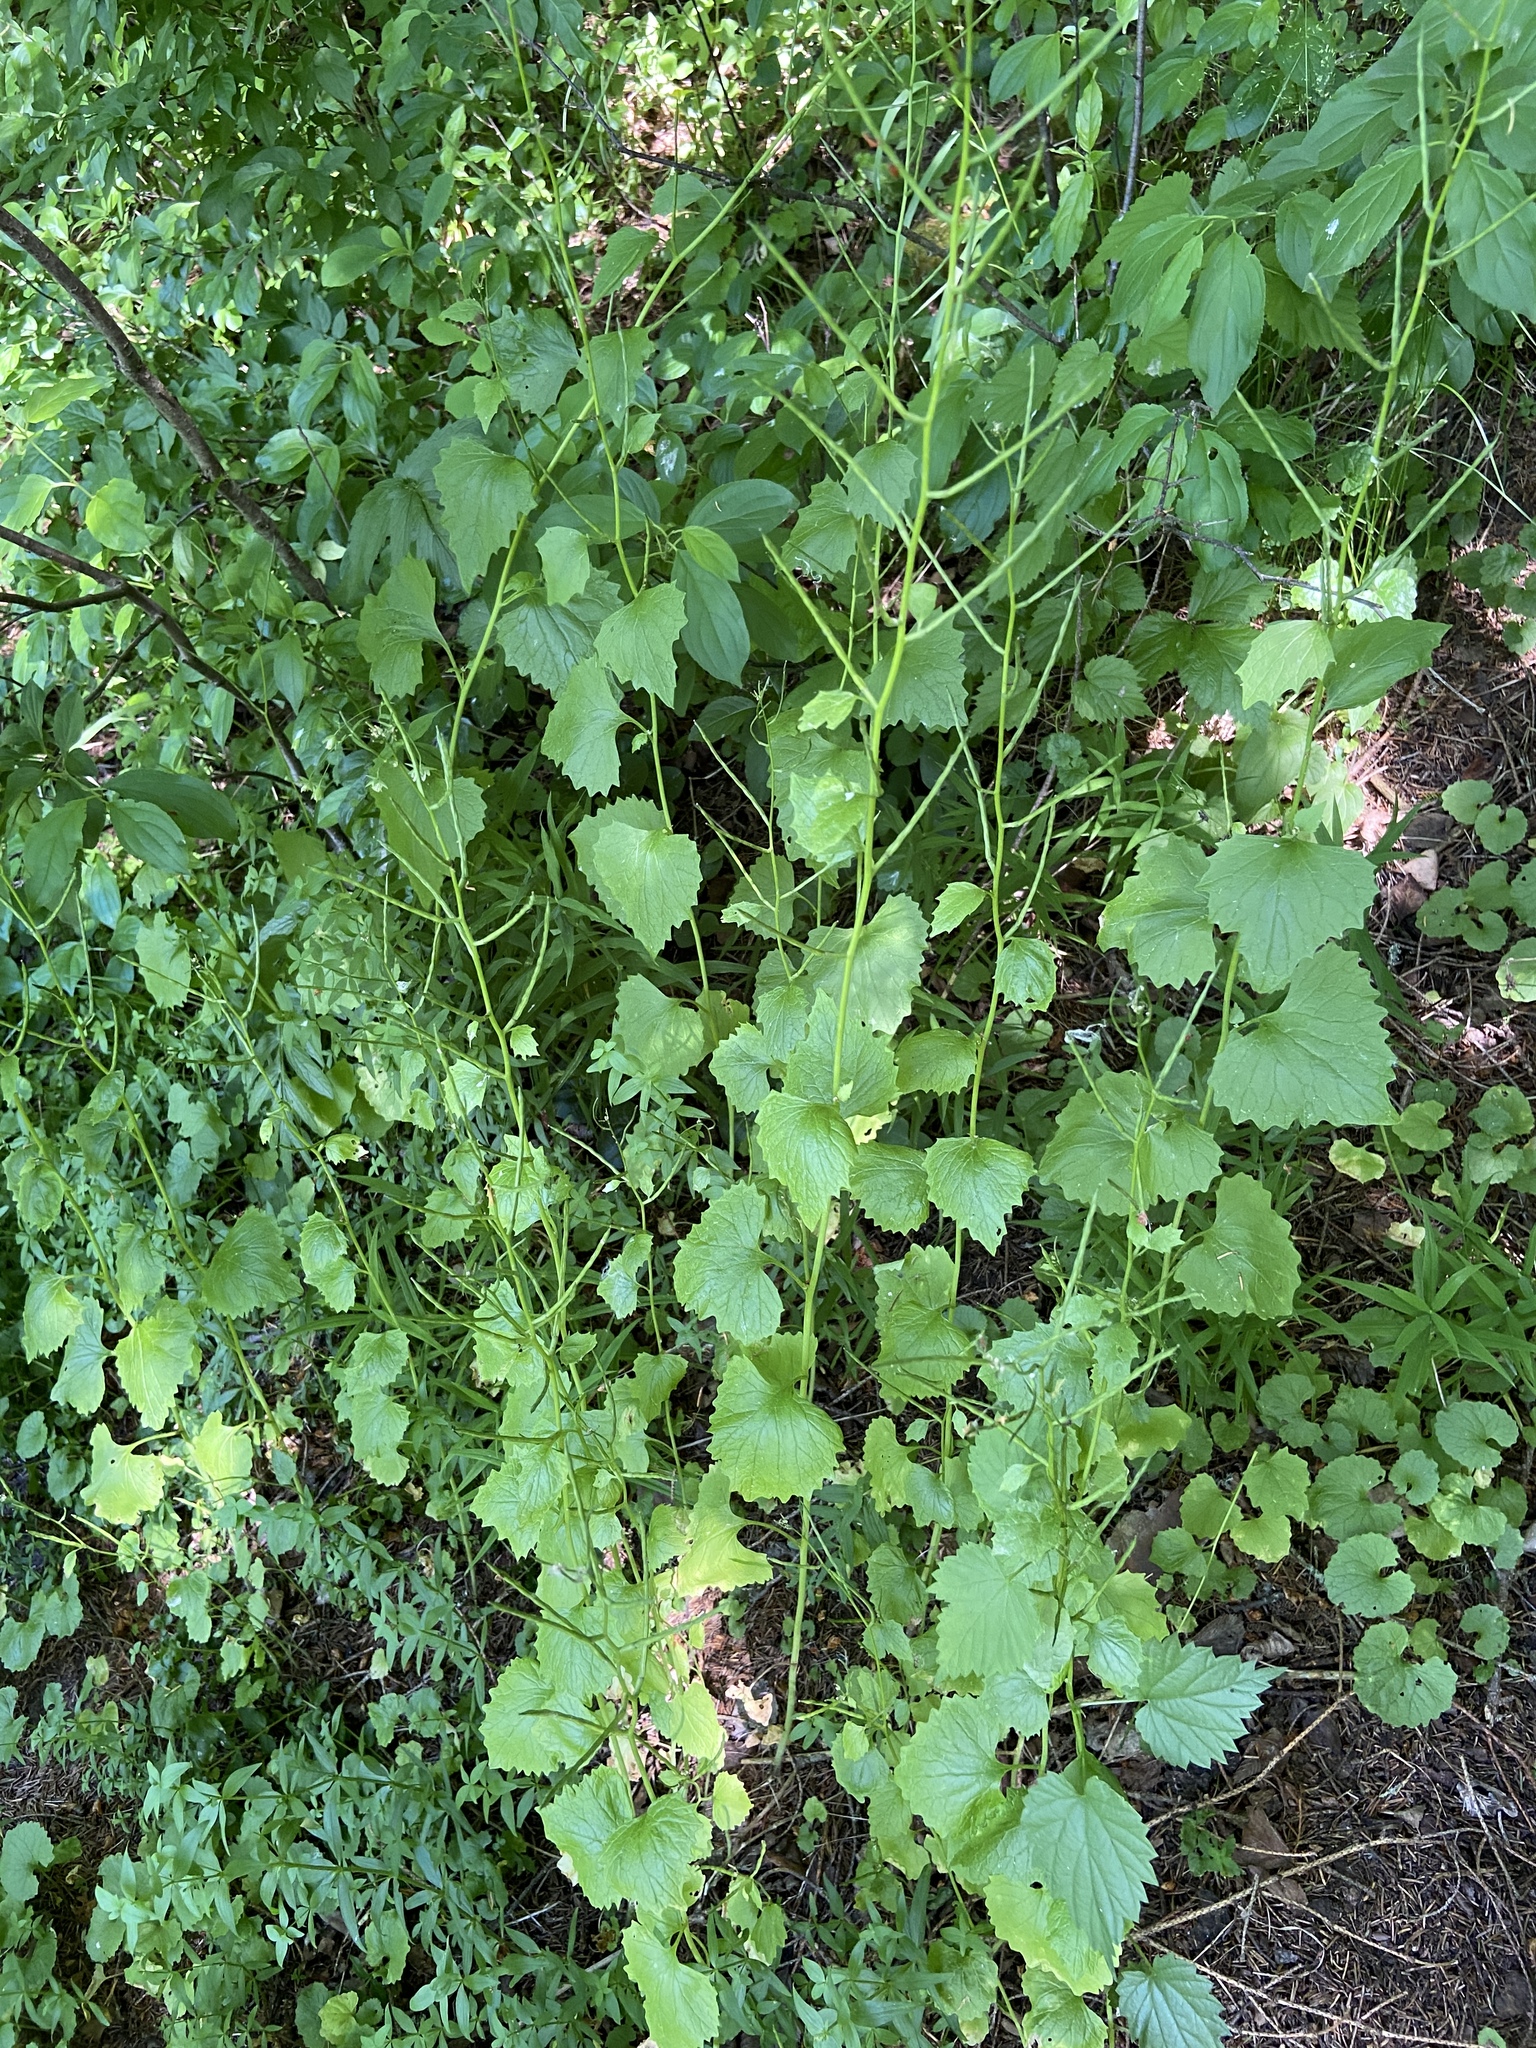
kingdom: Plantae
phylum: Tracheophyta
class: Magnoliopsida
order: Brassicales
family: Brassicaceae
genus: Alliaria
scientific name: Alliaria petiolata
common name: Garlic mustard
